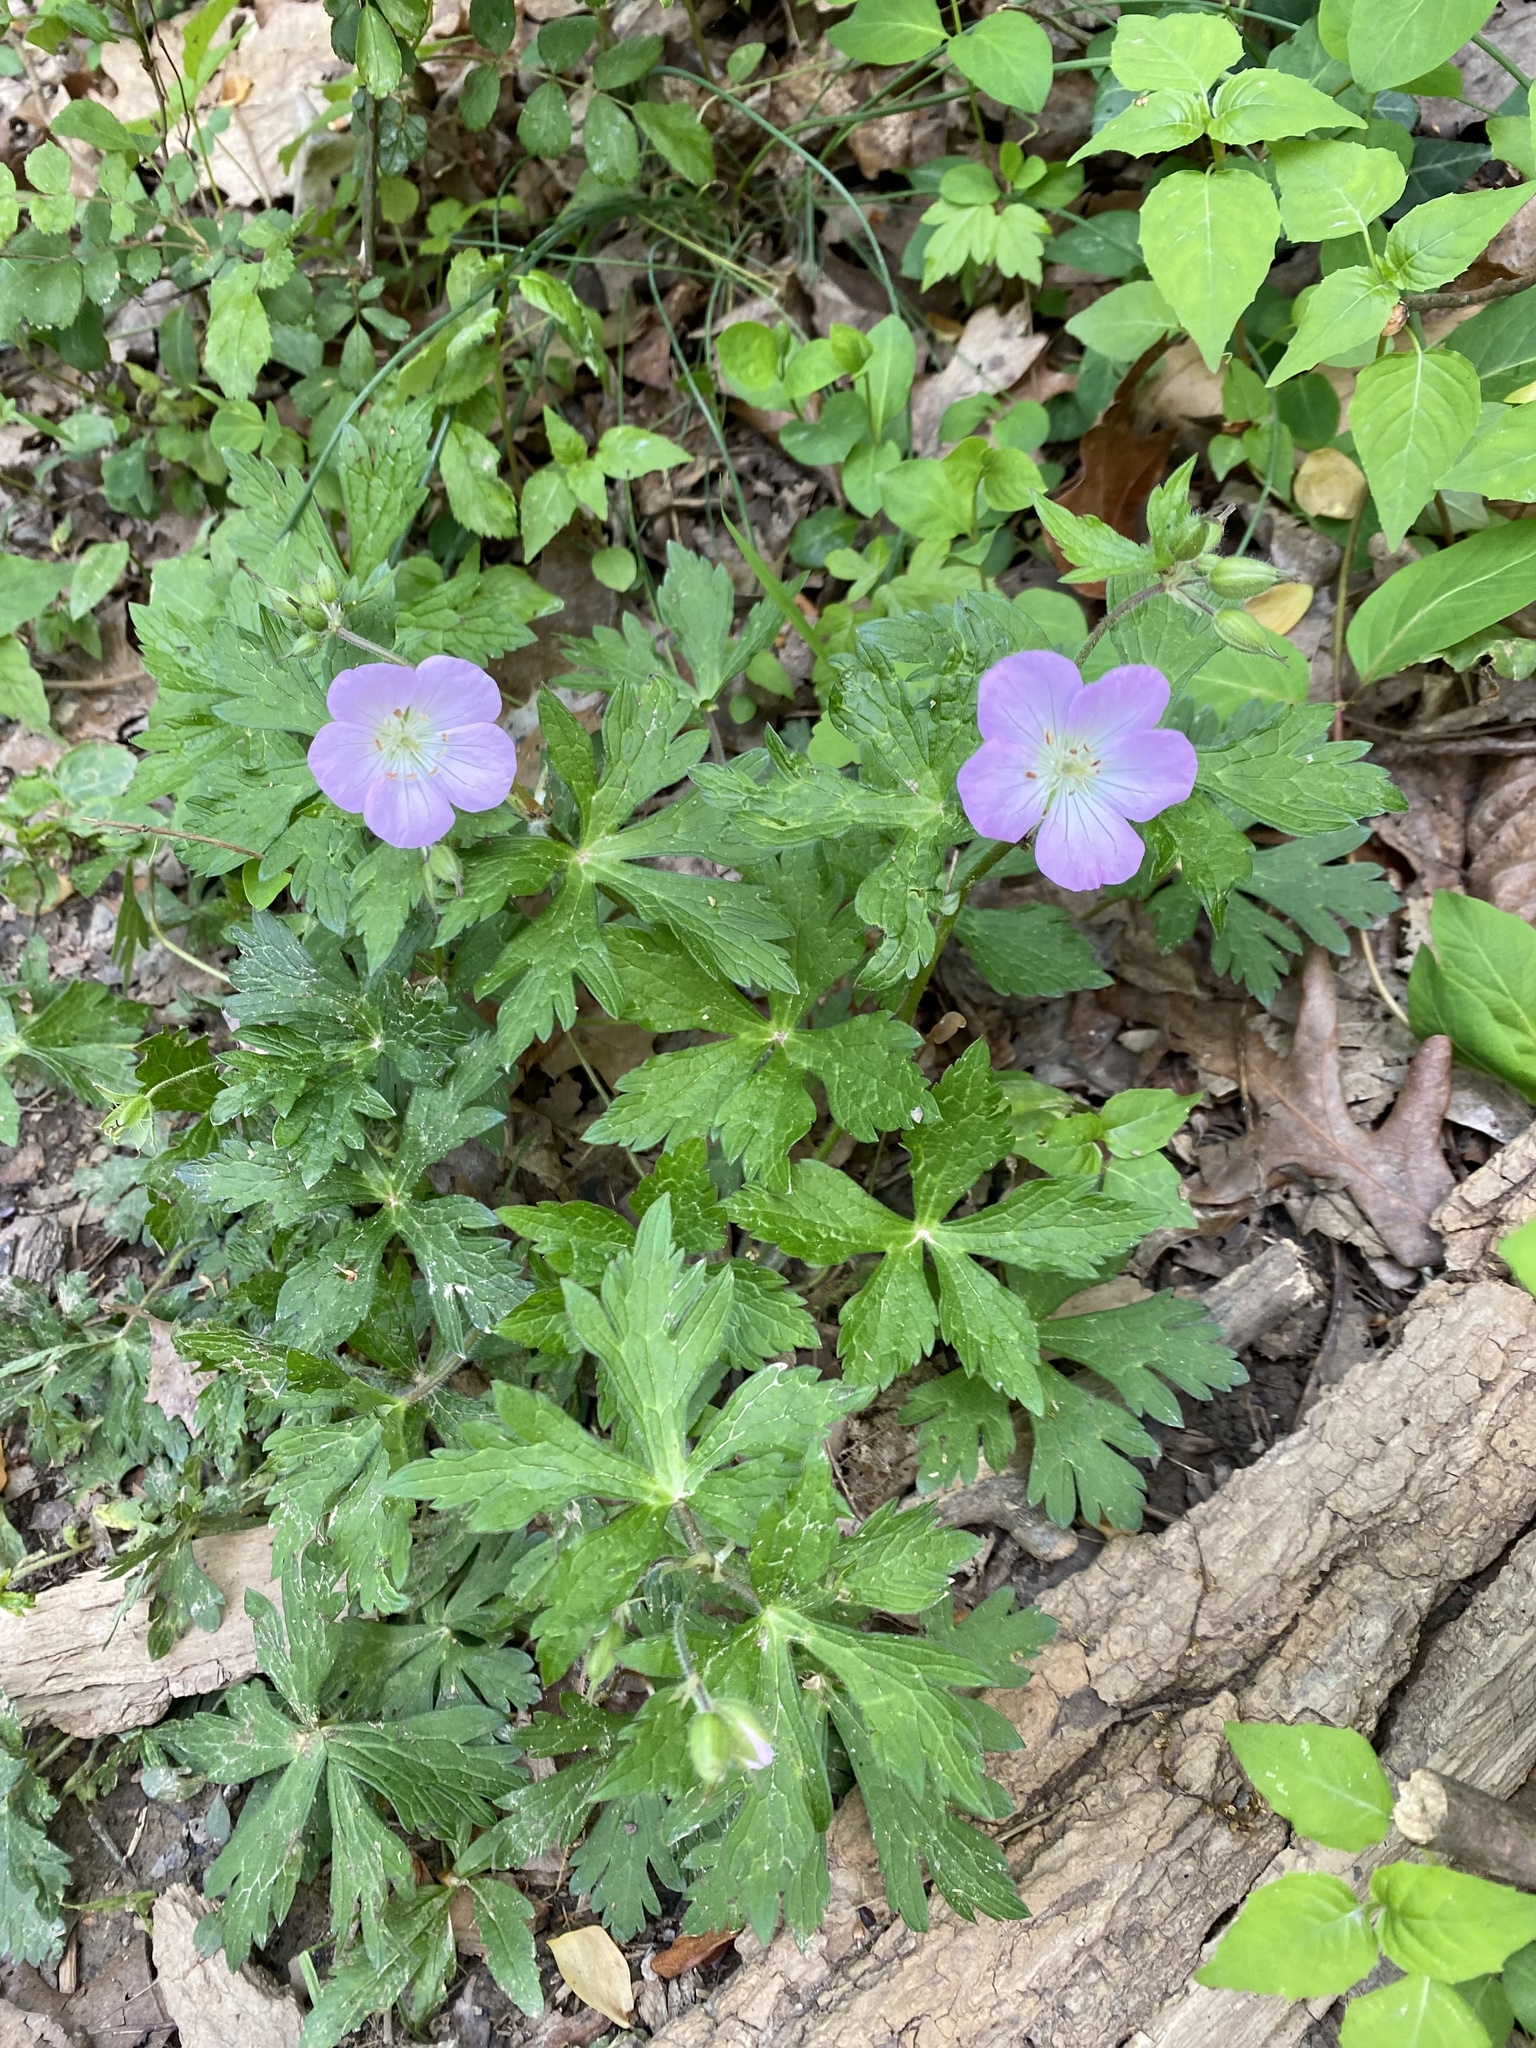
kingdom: Plantae
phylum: Tracheophyta
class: Magnoliopsida
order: Geraniales
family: Geraniaceae
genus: Geranium
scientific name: Geranium maculatum
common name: Spotted geranium
